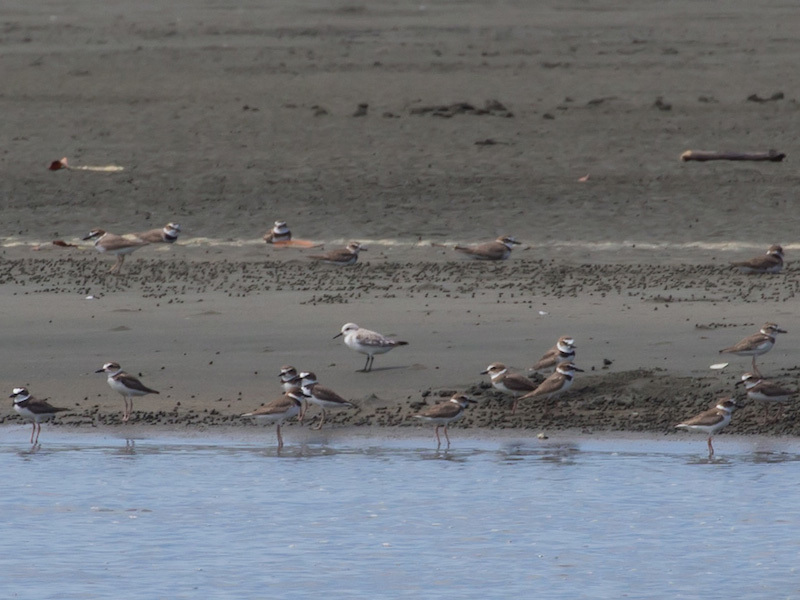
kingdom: Animalia
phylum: Chordata
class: Aves
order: Charadriiformes
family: Scolopacidae
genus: Calidris
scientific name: Calidris alba
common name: Sanderling
